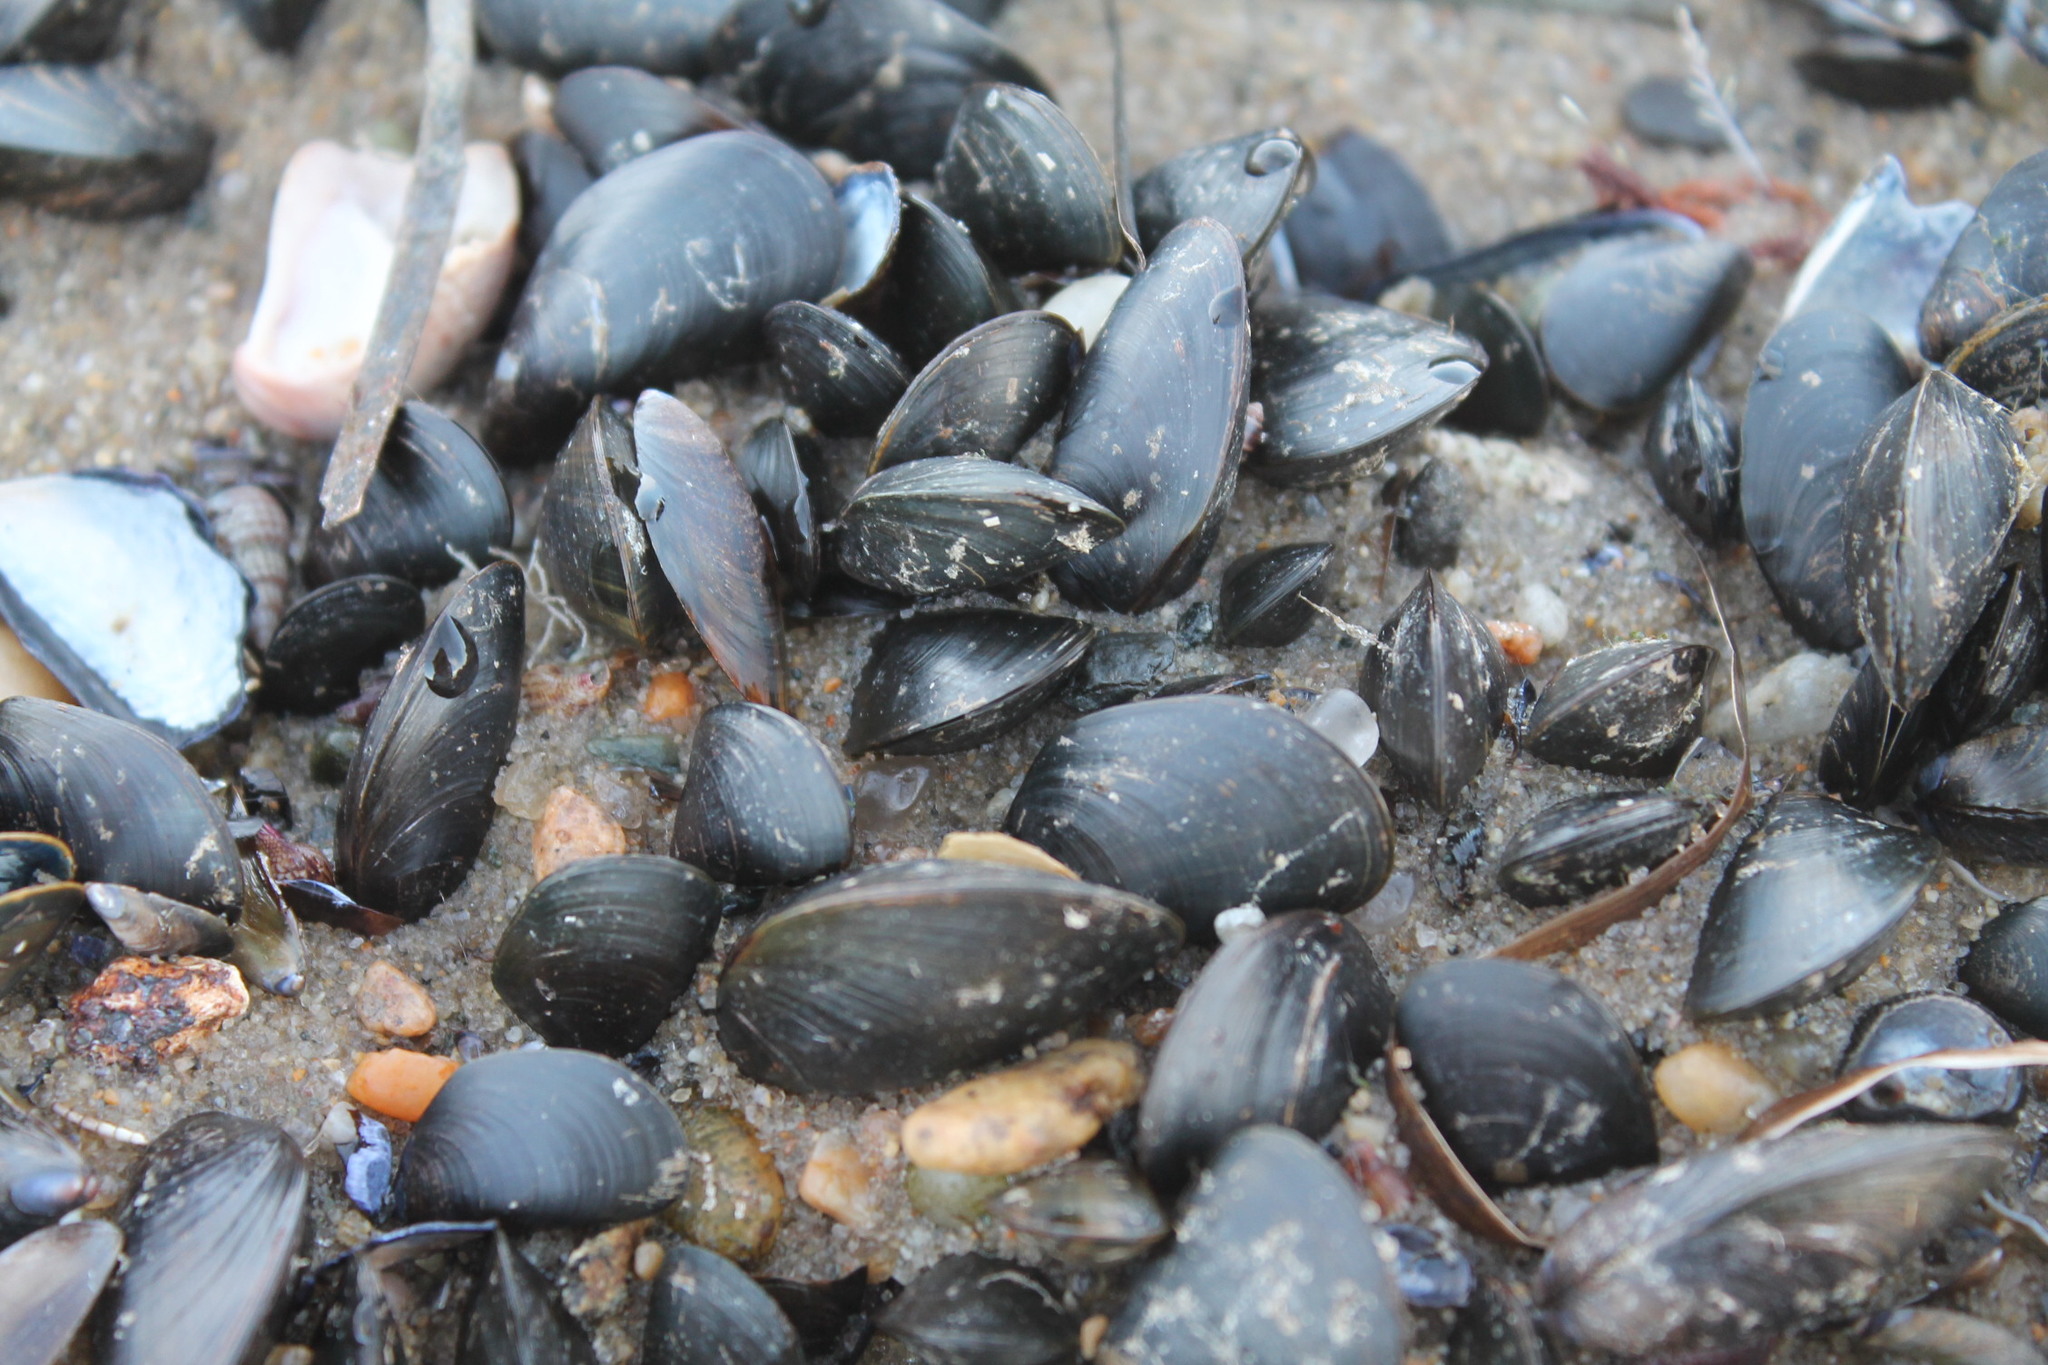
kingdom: Animalia
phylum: Mollusca
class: Bivalvia
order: Mytilida
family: Mytilidae
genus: Mytilus
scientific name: Mytilus edulis
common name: Blue mussel
